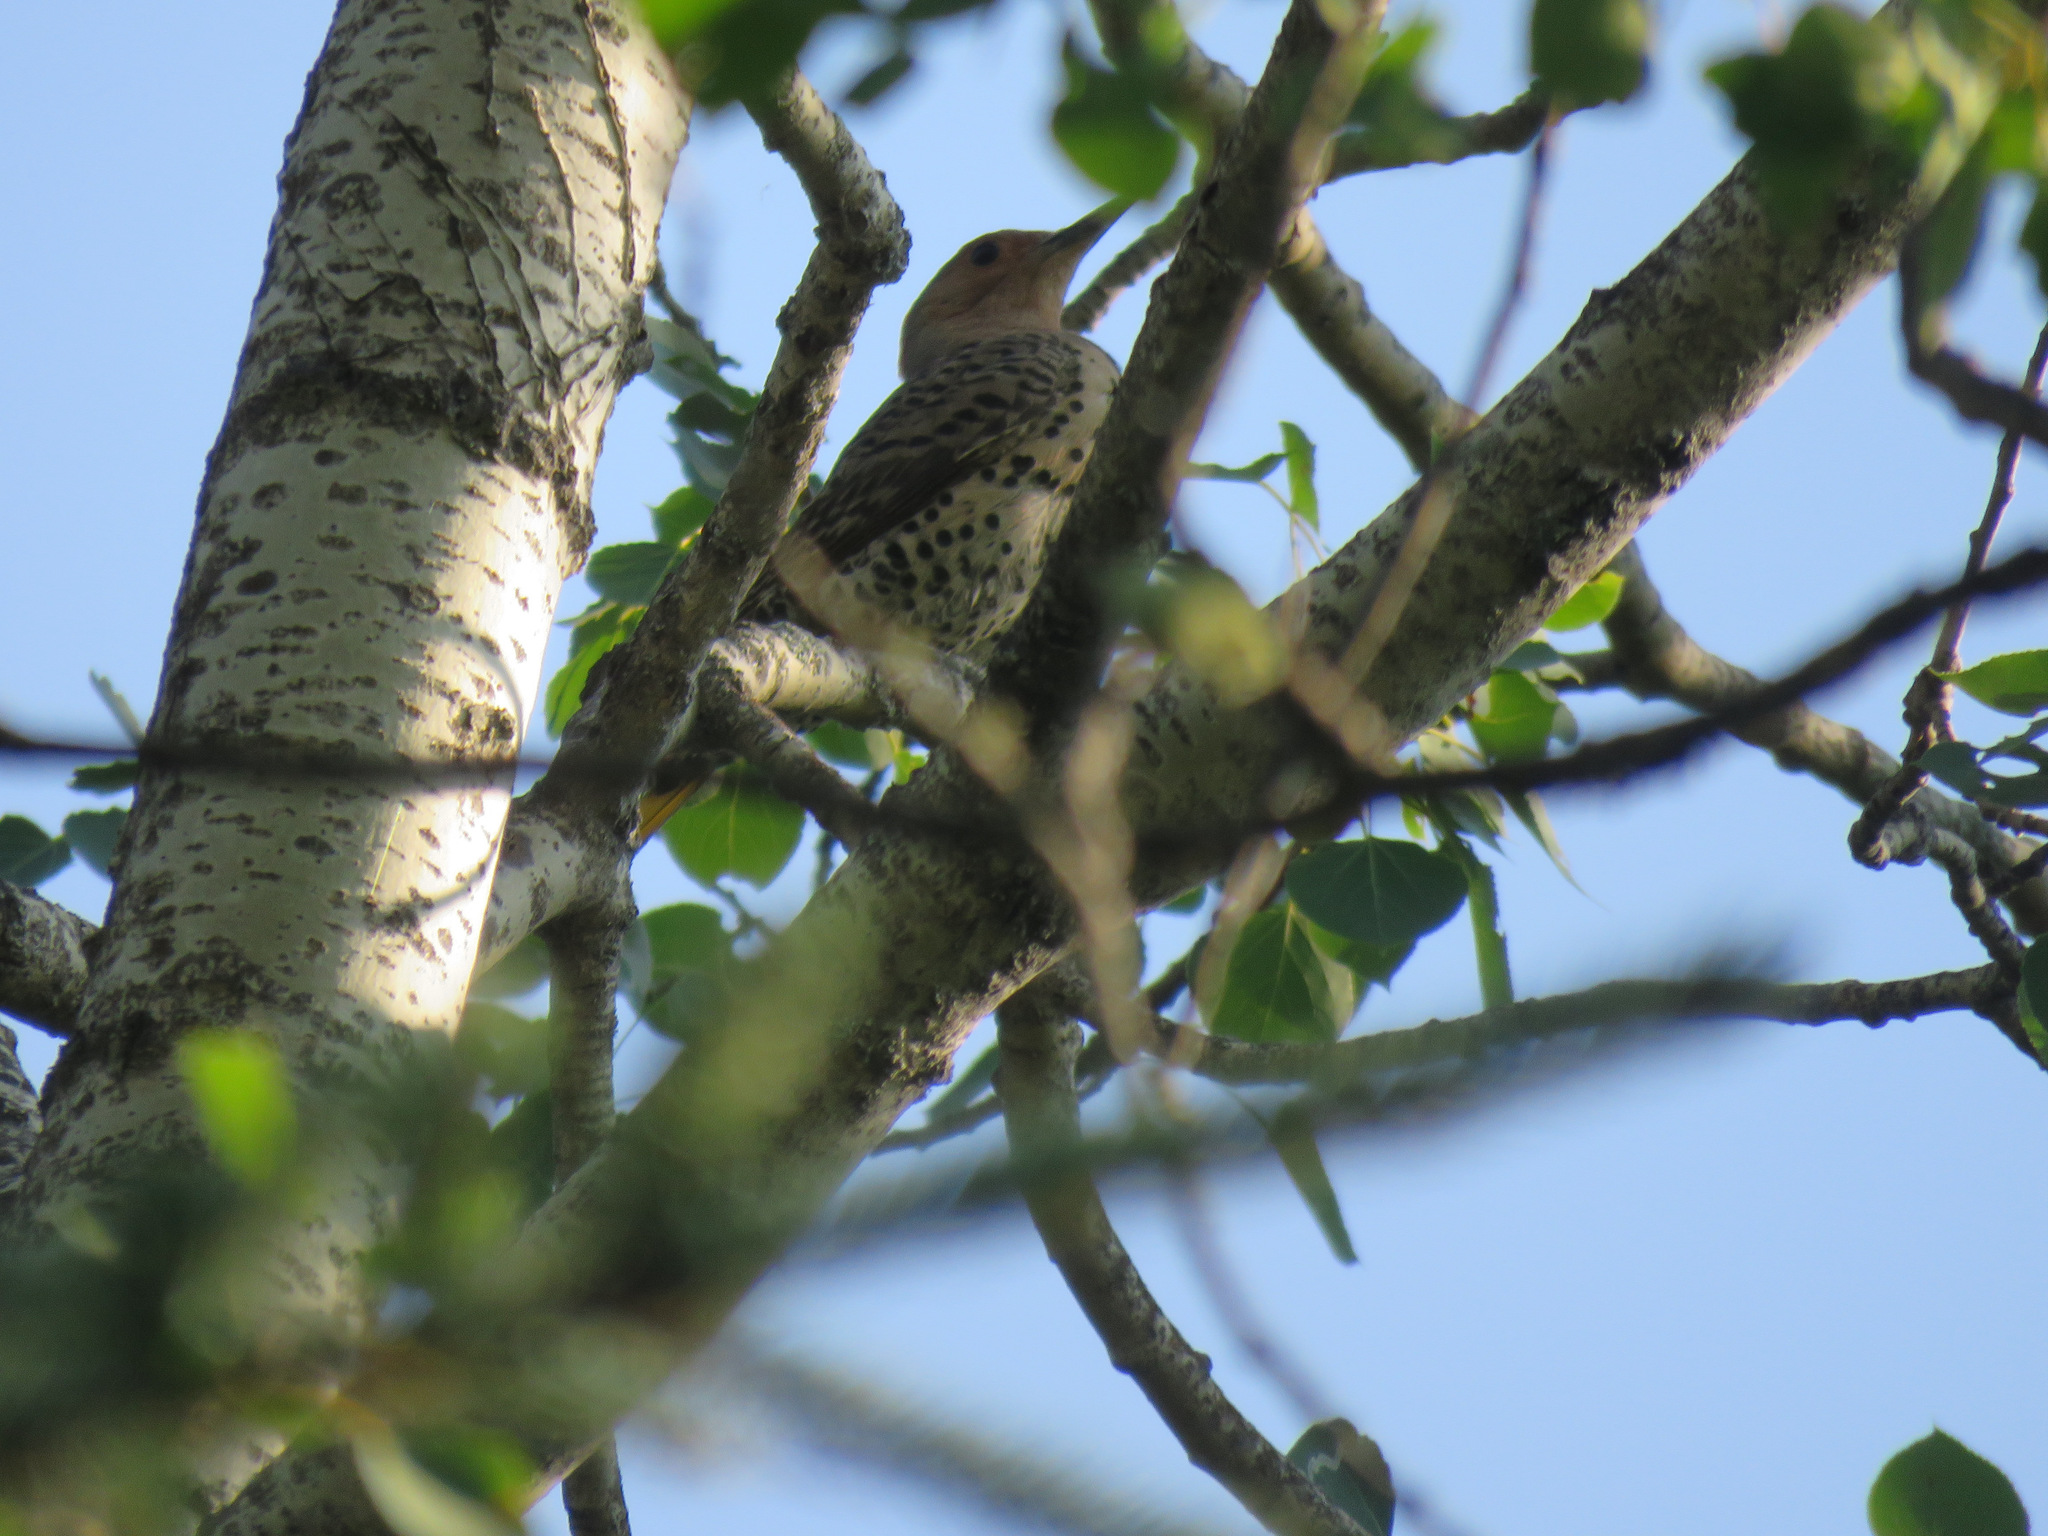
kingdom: Animalia
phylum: Chordata
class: Aves
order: Piciformes
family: Picidae
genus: Colaptes
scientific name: Colaptes auratus
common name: Northern flicker
